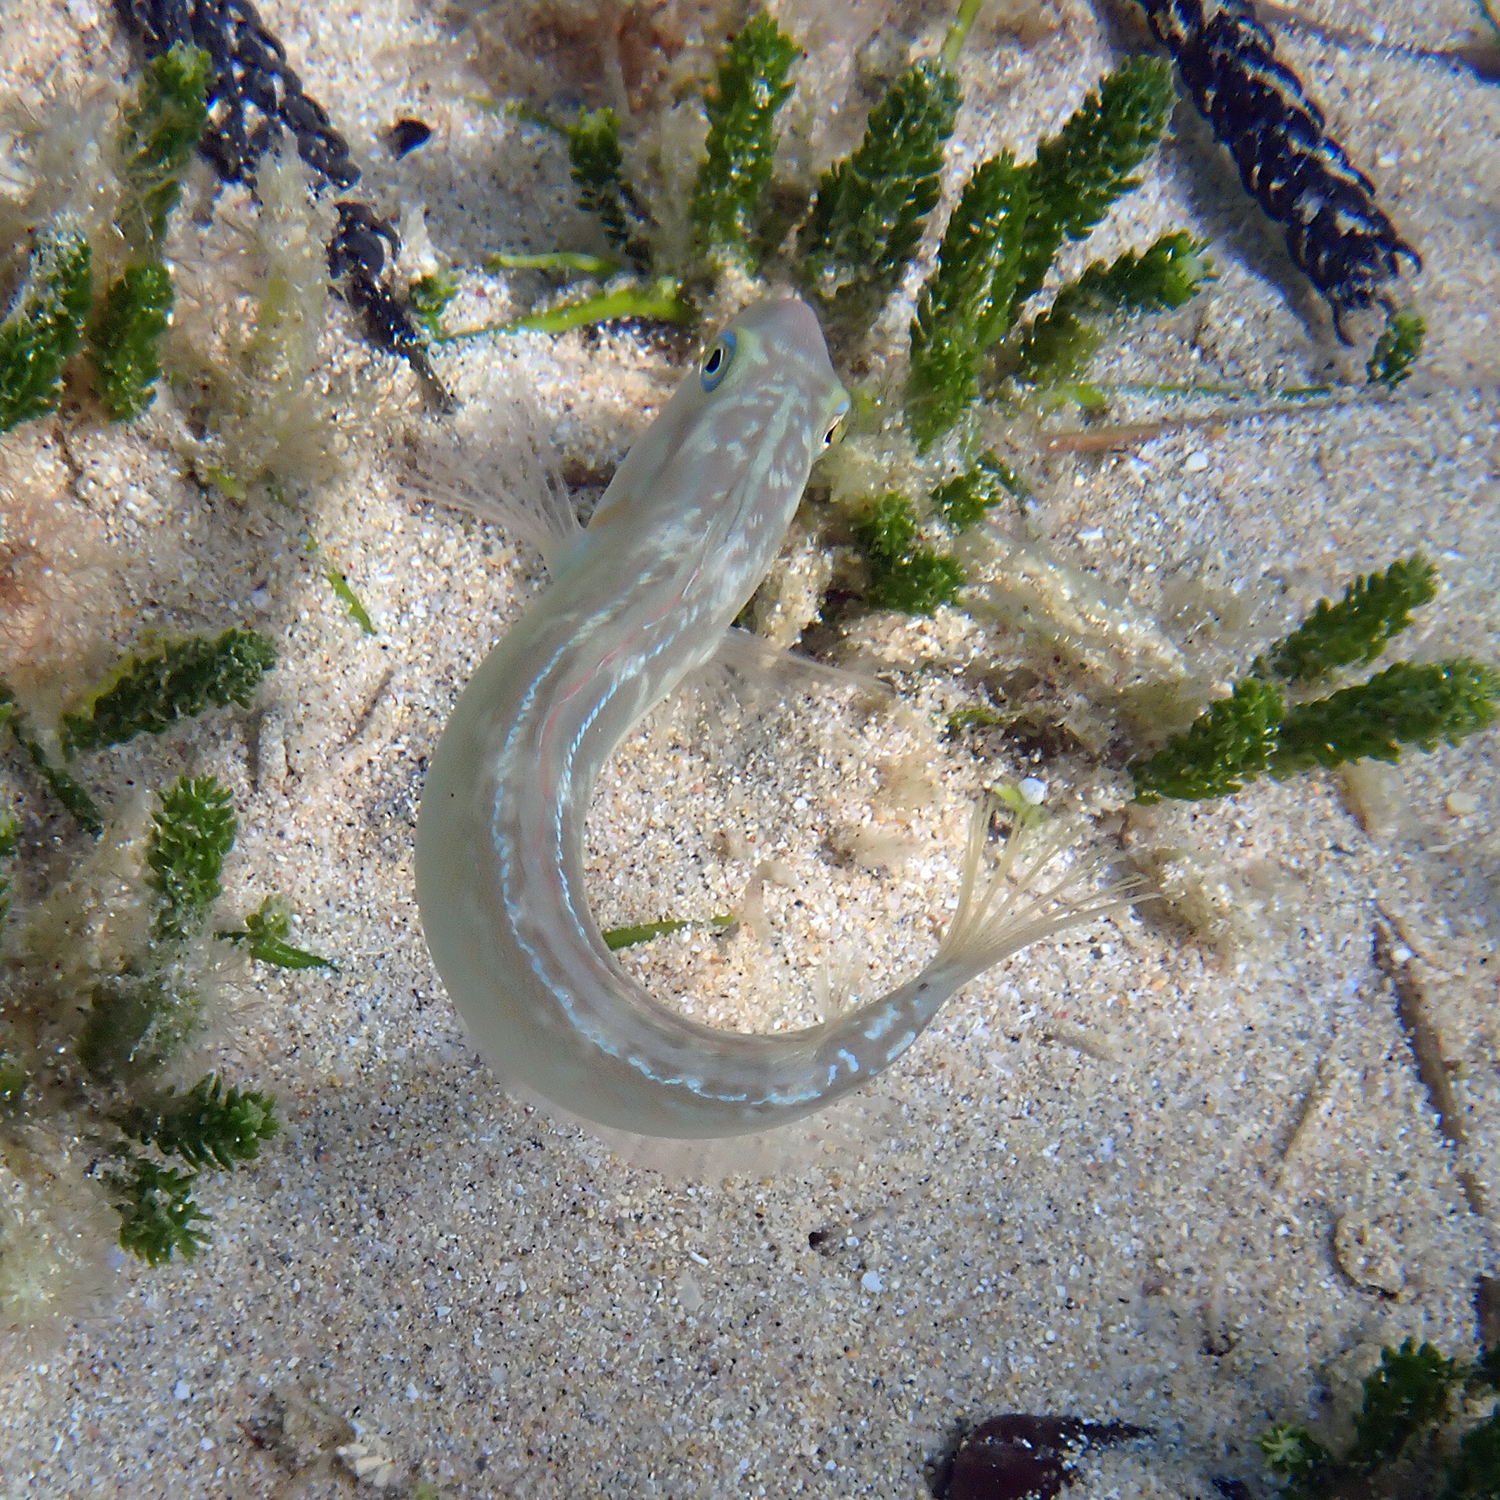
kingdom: Animalia
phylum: Chordata
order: Perciformes
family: Labridae
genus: Cymolutes
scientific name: Cymolutes praetextatus
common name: Knife razorfish
